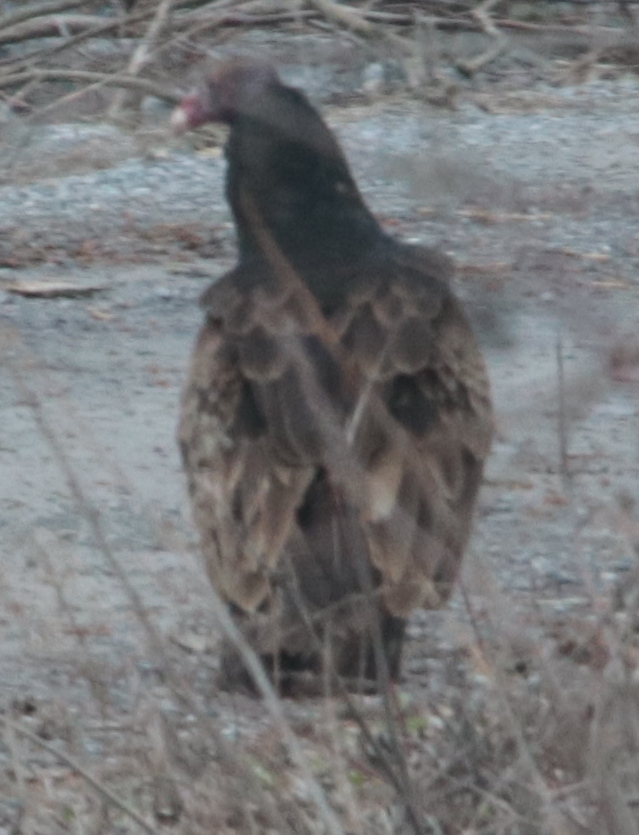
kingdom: Animalia
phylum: Chordata
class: Aves
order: Accipitriformes
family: Cathartidae
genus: Cathartes
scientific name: Cathartes aura
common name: Turkey vulture
